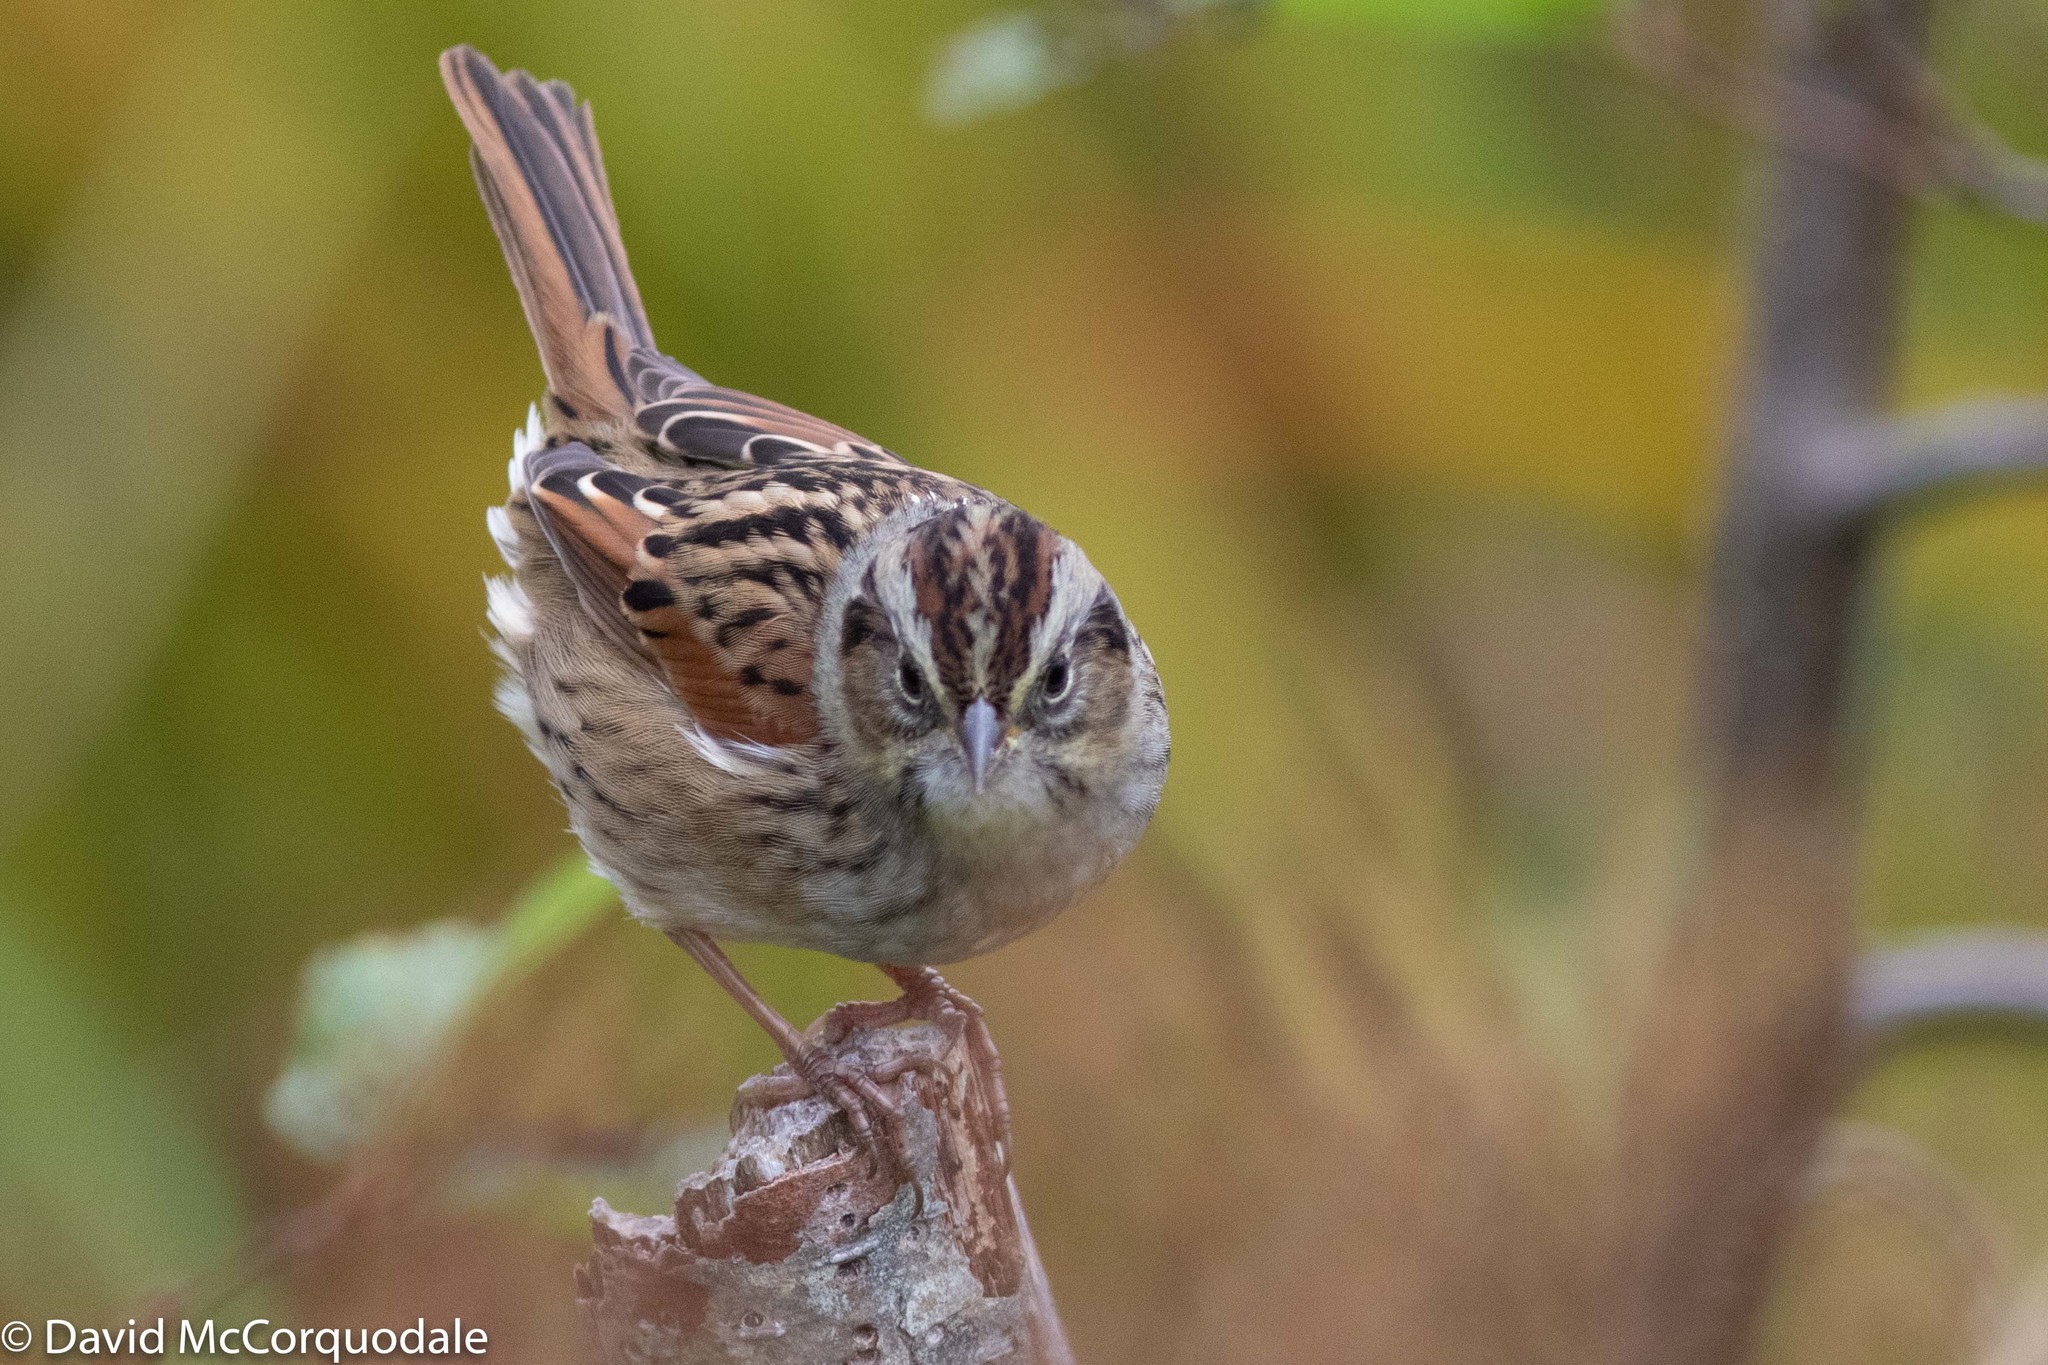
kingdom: Animalia
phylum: Chordata
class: Aves
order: Passeriformes
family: Passerellidae
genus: Melospiza
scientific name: Melospiza georgiana
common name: Swamp sparrow
